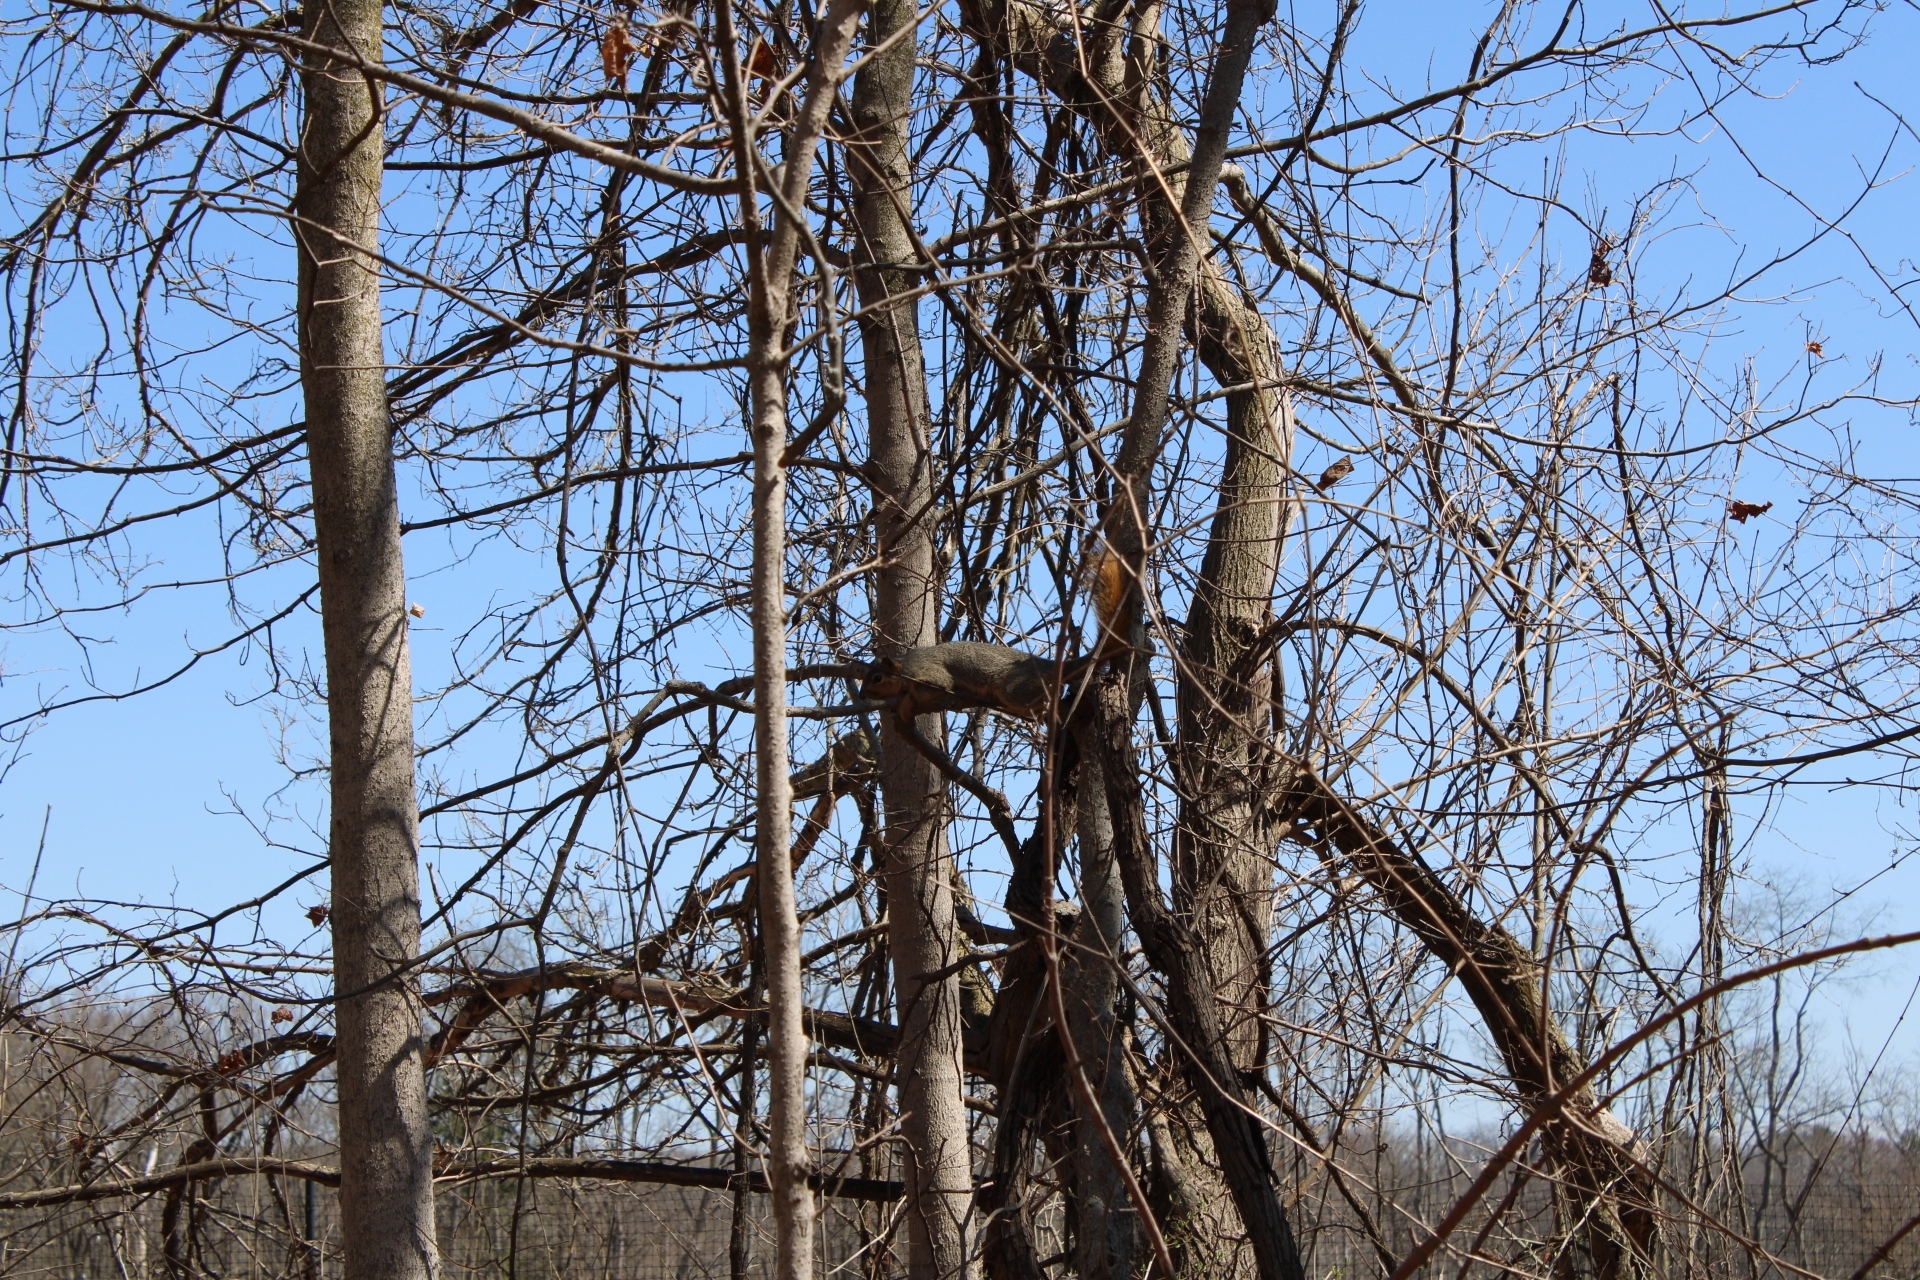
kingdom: Animalia
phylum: Chordata
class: Mammalia
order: Rodentia
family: Sciuridae
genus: Sciurus
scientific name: Sciurus niger
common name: Fox squirrel
